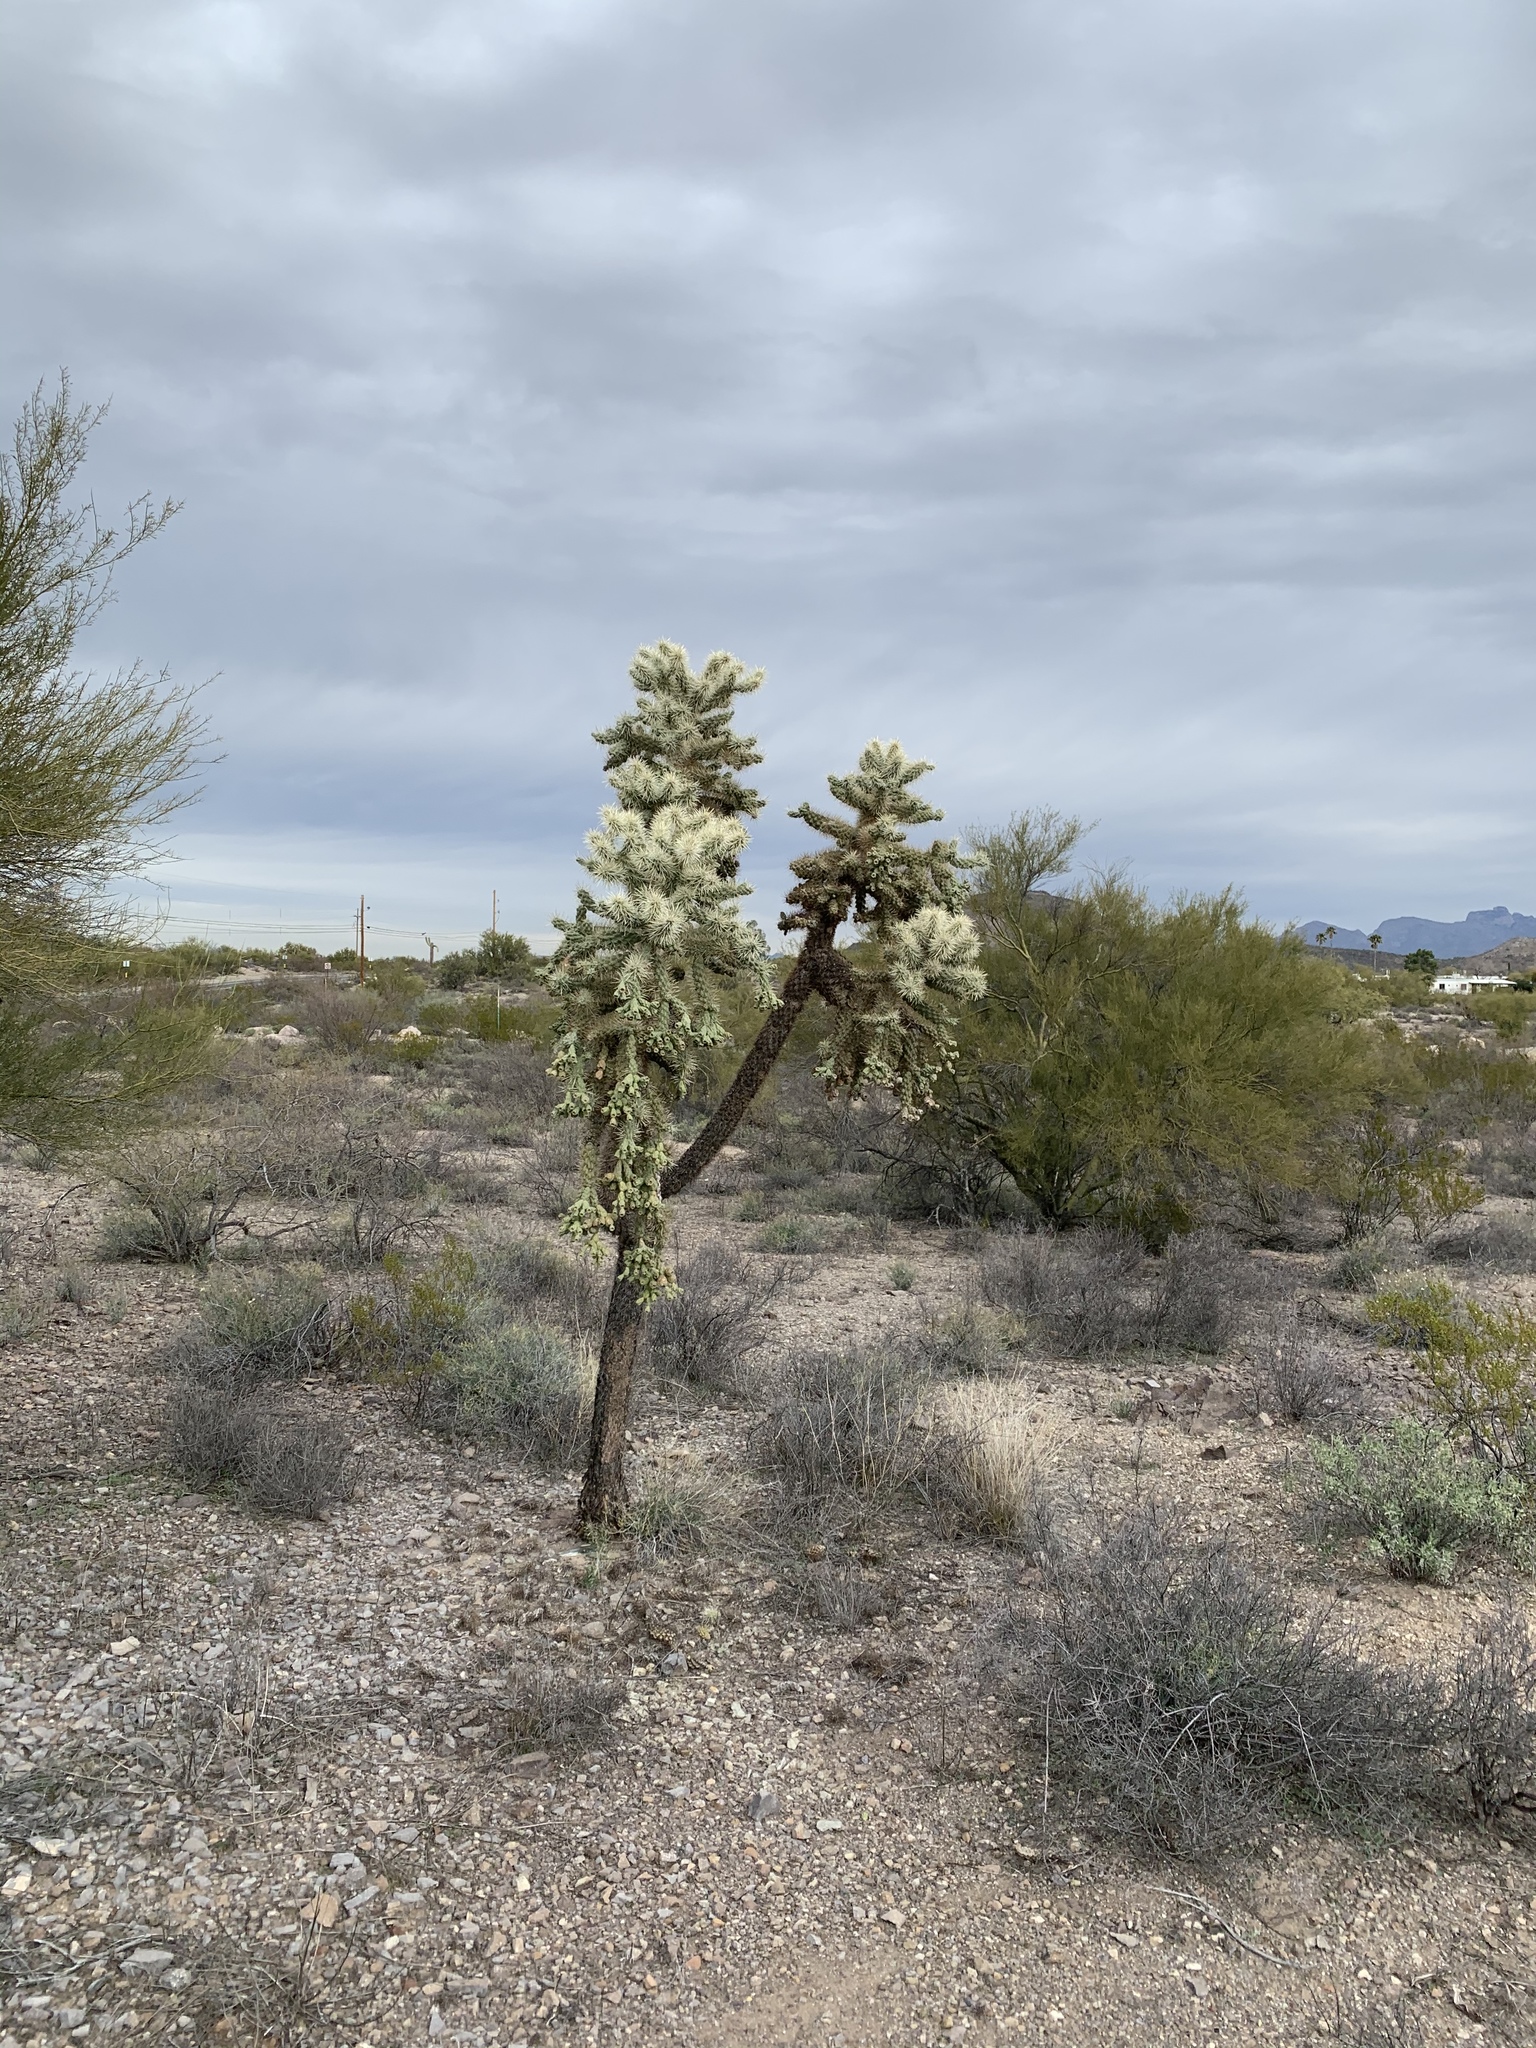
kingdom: Plantae
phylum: Tracheophyta
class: Magnoliopsida
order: Caryophyllales
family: Cactaceae
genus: Cylindropuntia
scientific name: Cylindropuntia fulgida
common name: Jumping cholla
